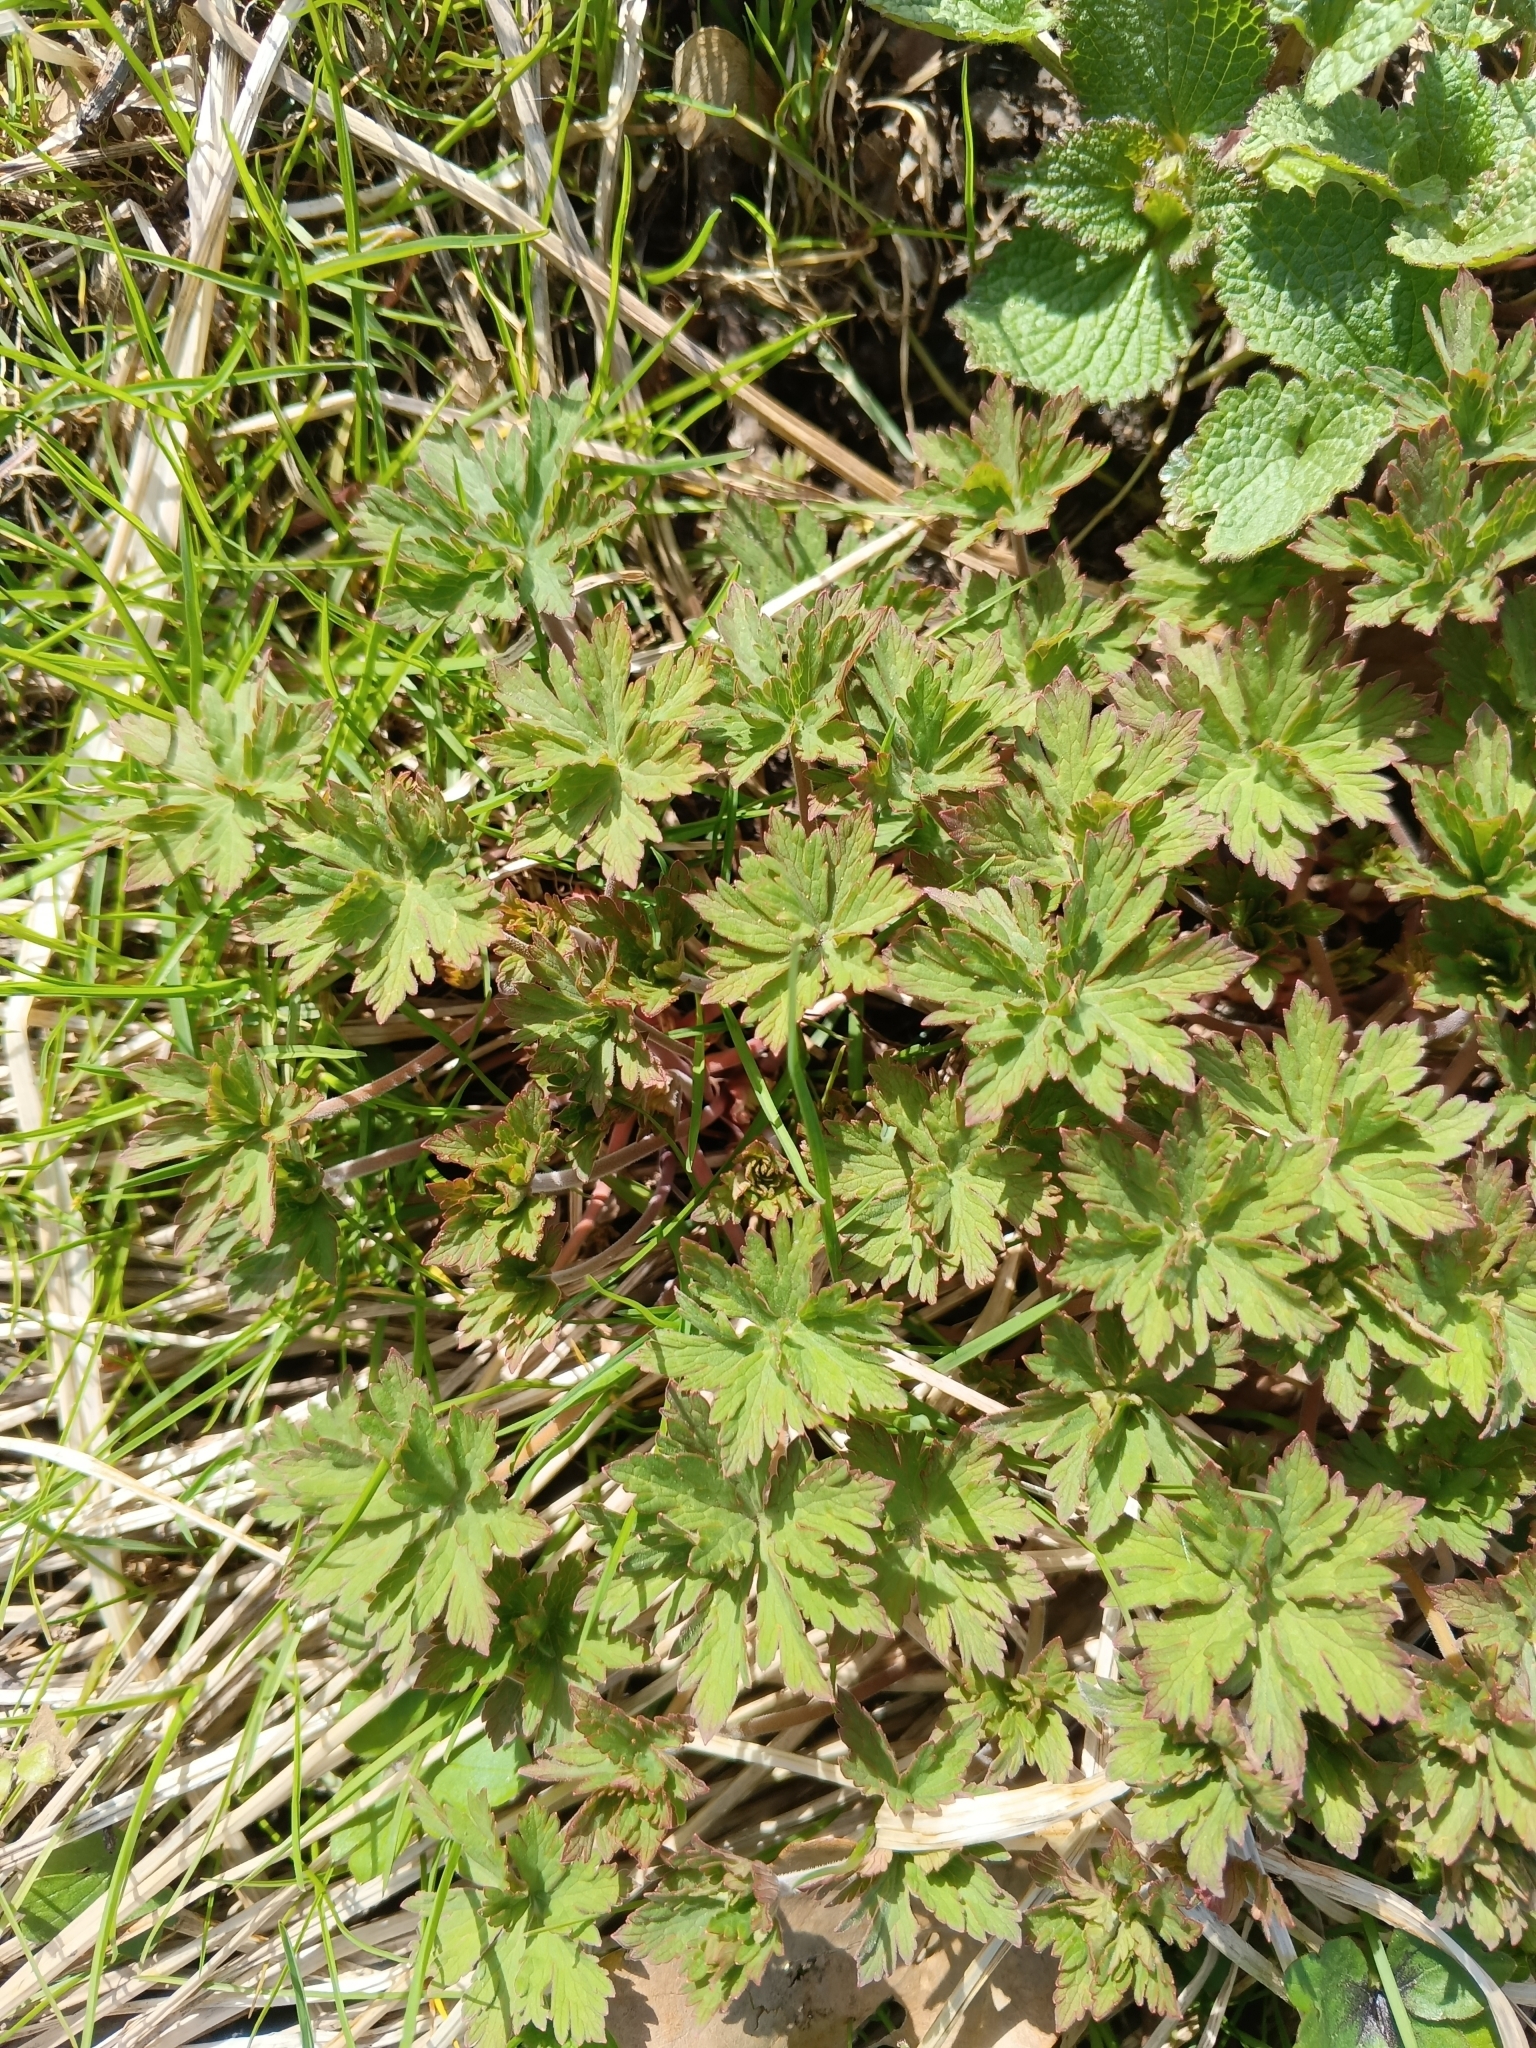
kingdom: Plantae
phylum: Tracheophyta
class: Magnoliopsida
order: Geraniales
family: Geraniaceae
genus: Geranium
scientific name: Geranium pratense
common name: Meadow crane's-bill
